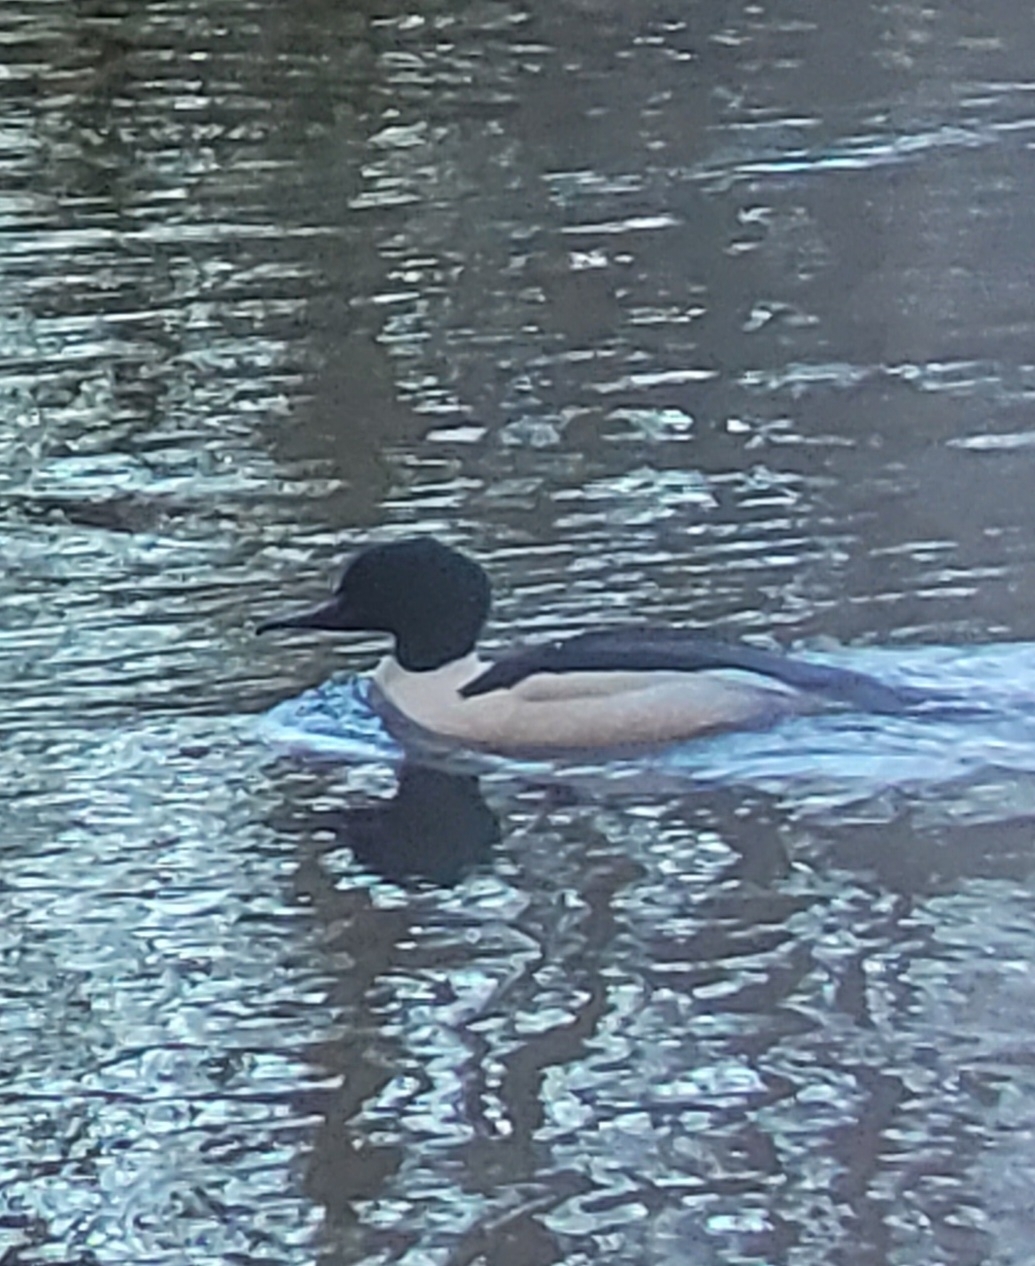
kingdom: Animalia
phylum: Chordata
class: Aves
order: Anseriformes
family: Anatidae
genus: Mergus
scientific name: Mergus merganser
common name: Common merganser
